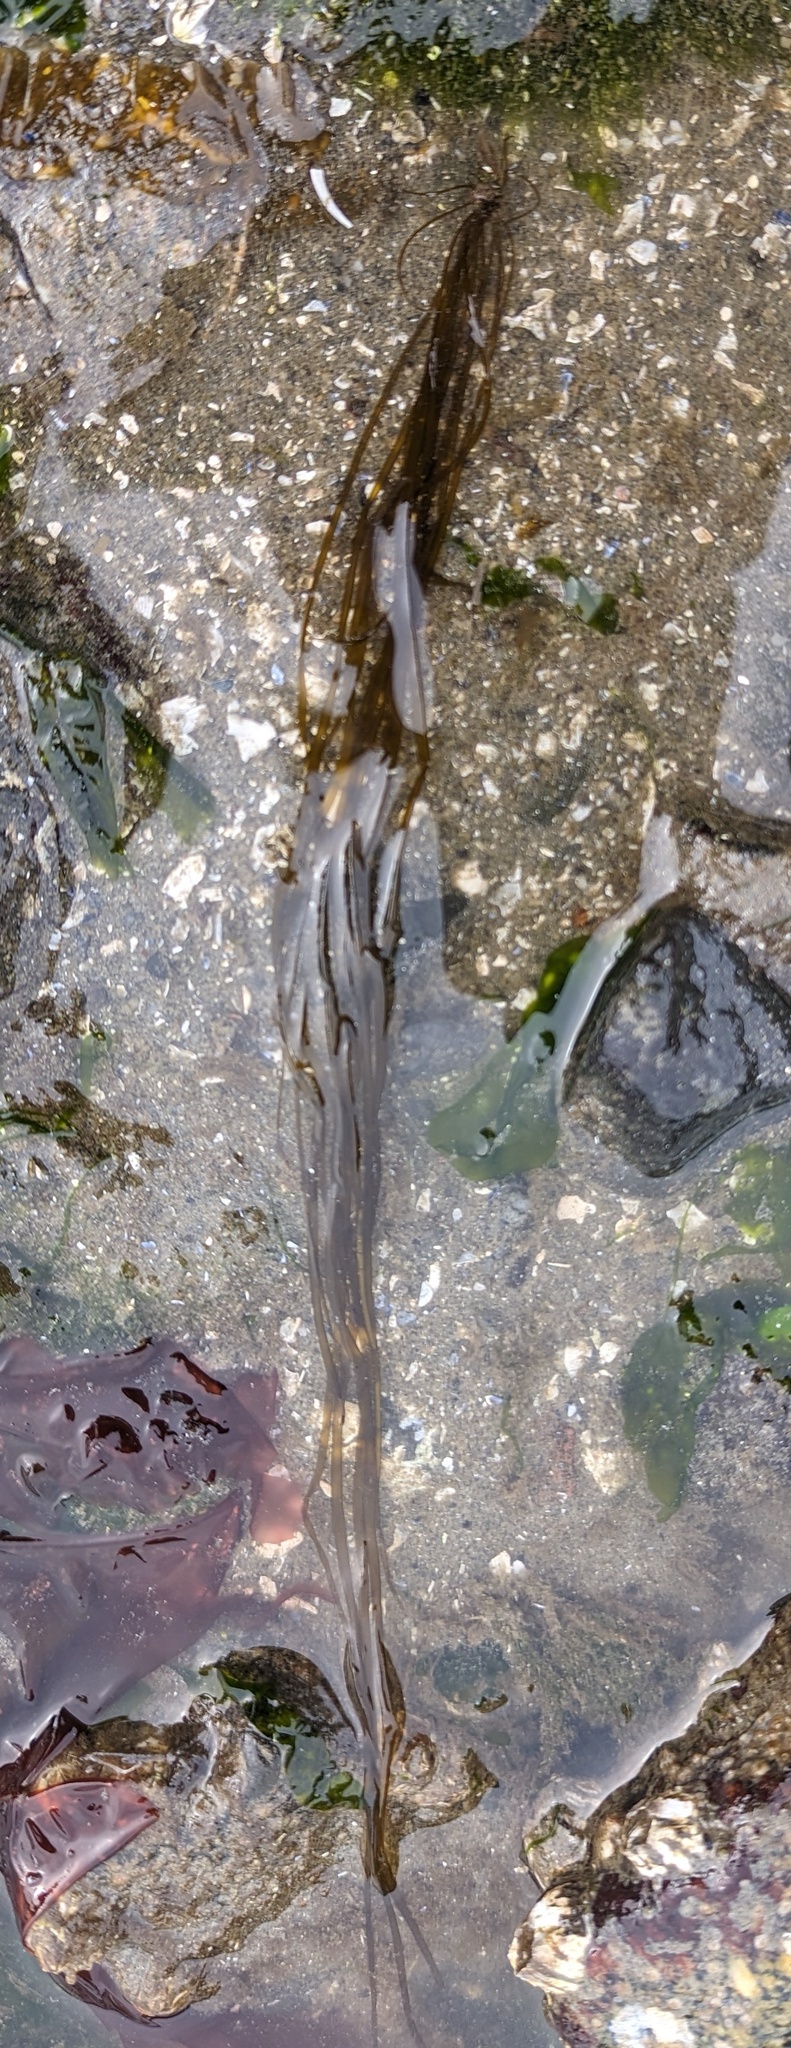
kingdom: Chromista
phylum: Ochrophyta
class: Phaeophyceae
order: Scytosiphonales
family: Scytosiphonaceae
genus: Scytosiphon
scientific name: Scytosiphon lomentaria
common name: Beanweed
